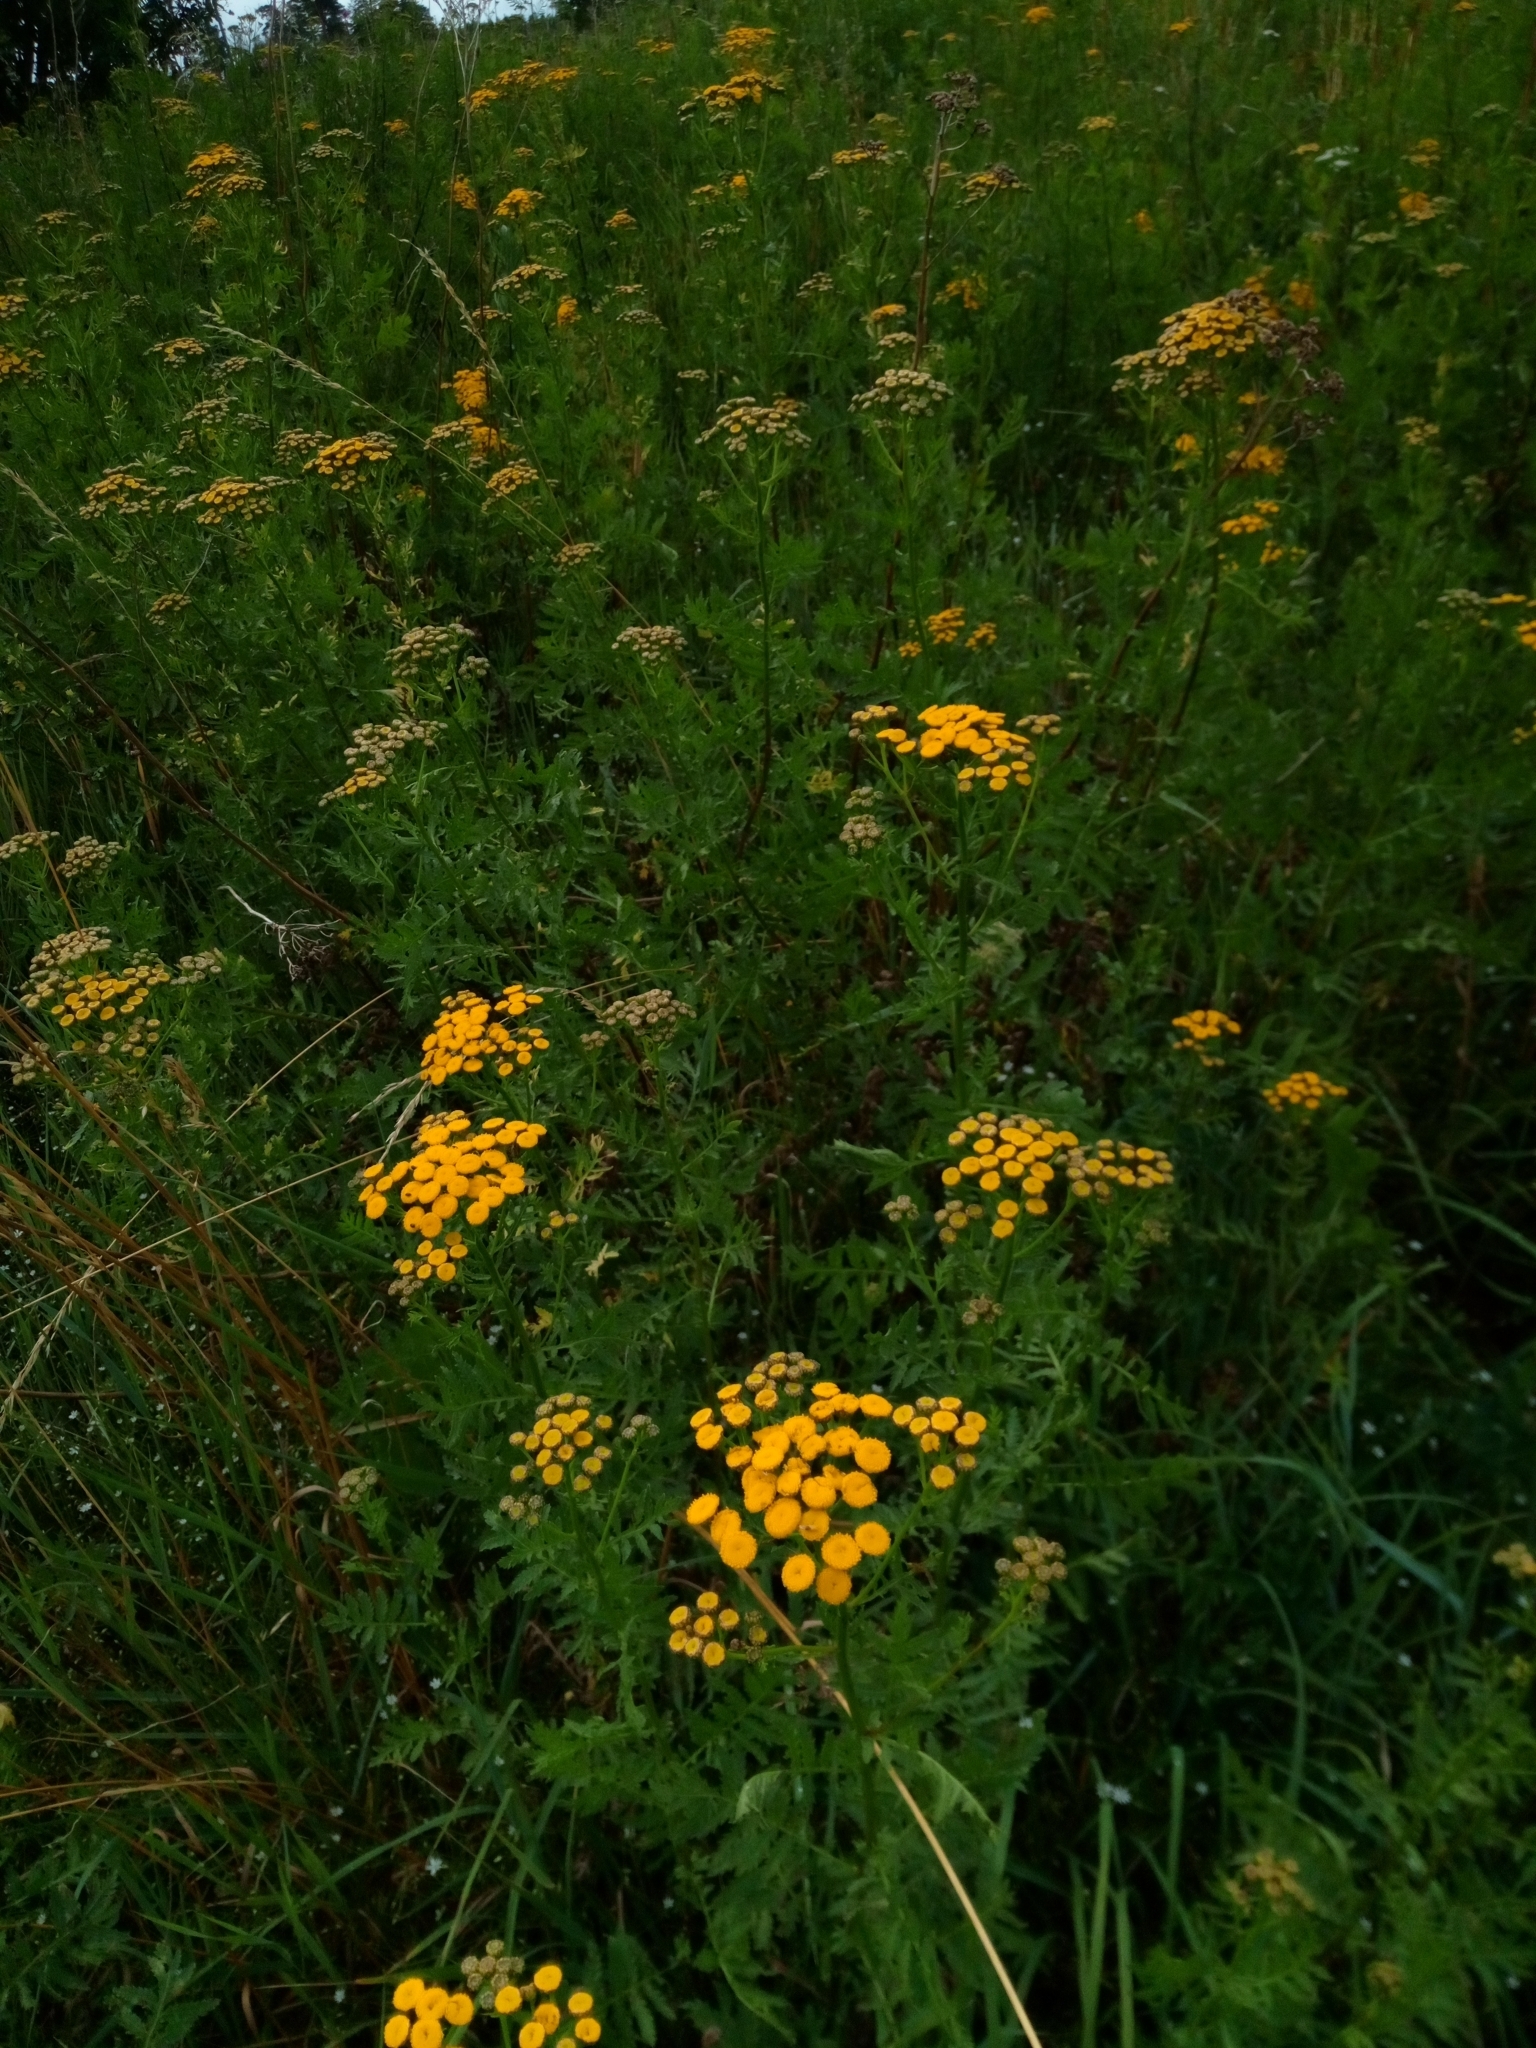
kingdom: Plantae
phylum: Tracheophyta
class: Magnoliopsida
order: Asterales
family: Asteraceae
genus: Tanacetum
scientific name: Tanacetum vulgare
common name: Common tansy
